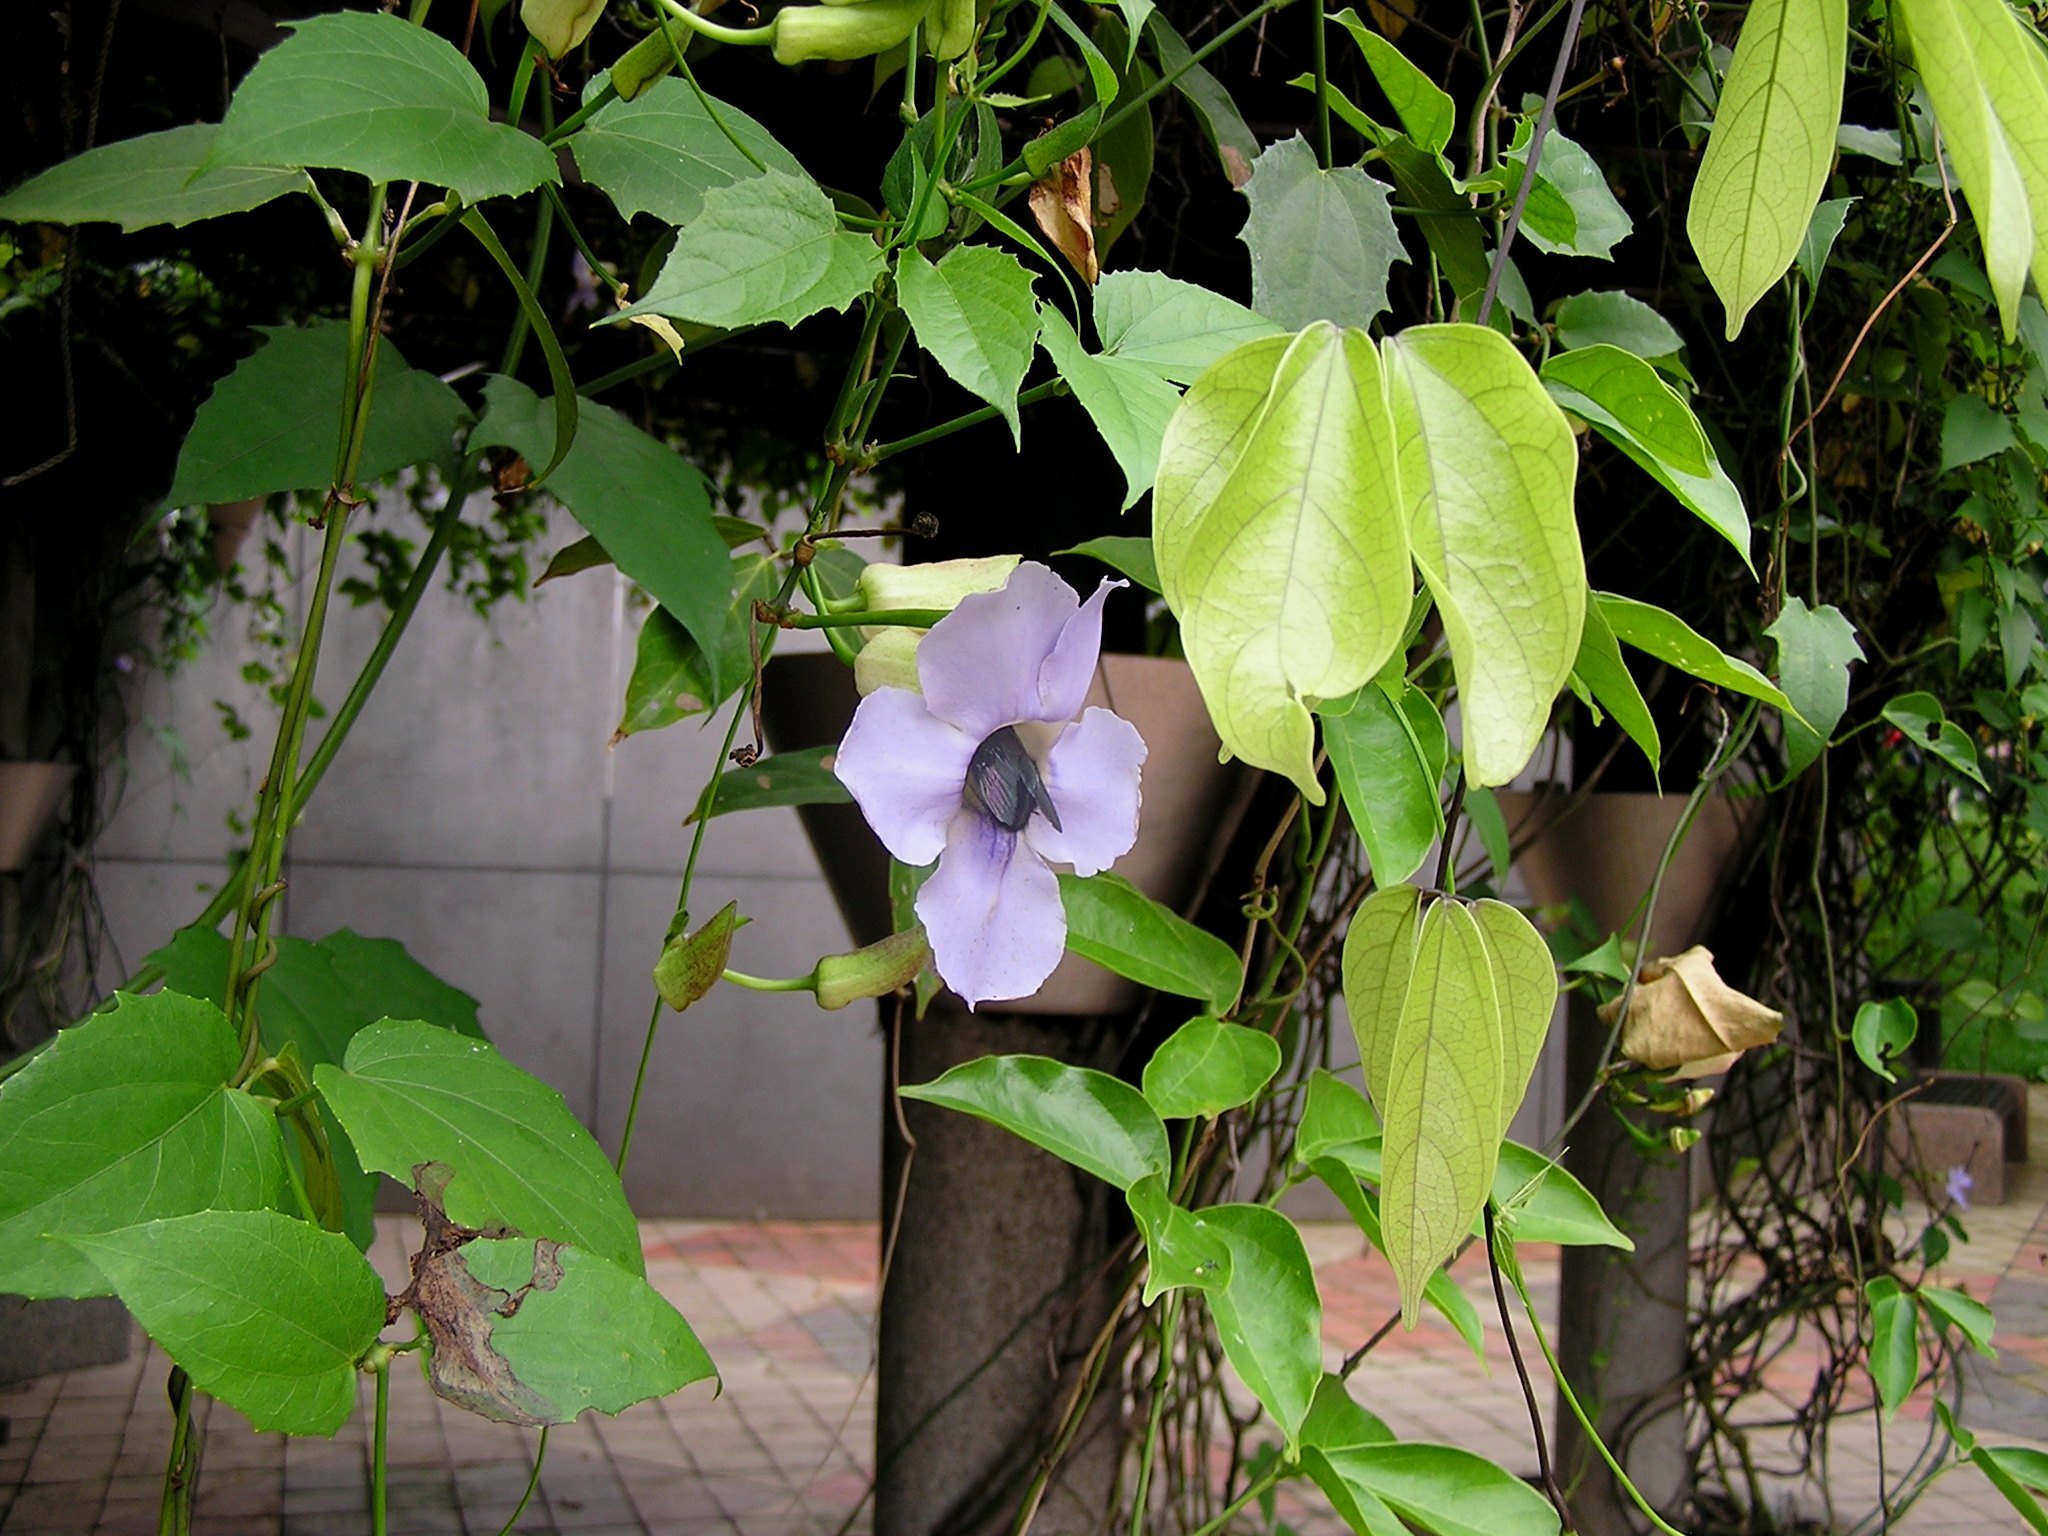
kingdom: Plantae
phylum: Tracheophyta
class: Magnoliopsida
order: Lamiales
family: Acanthaceae
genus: Thunbergia
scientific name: Thunbergia grandiflora
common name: Bengal trumpet
